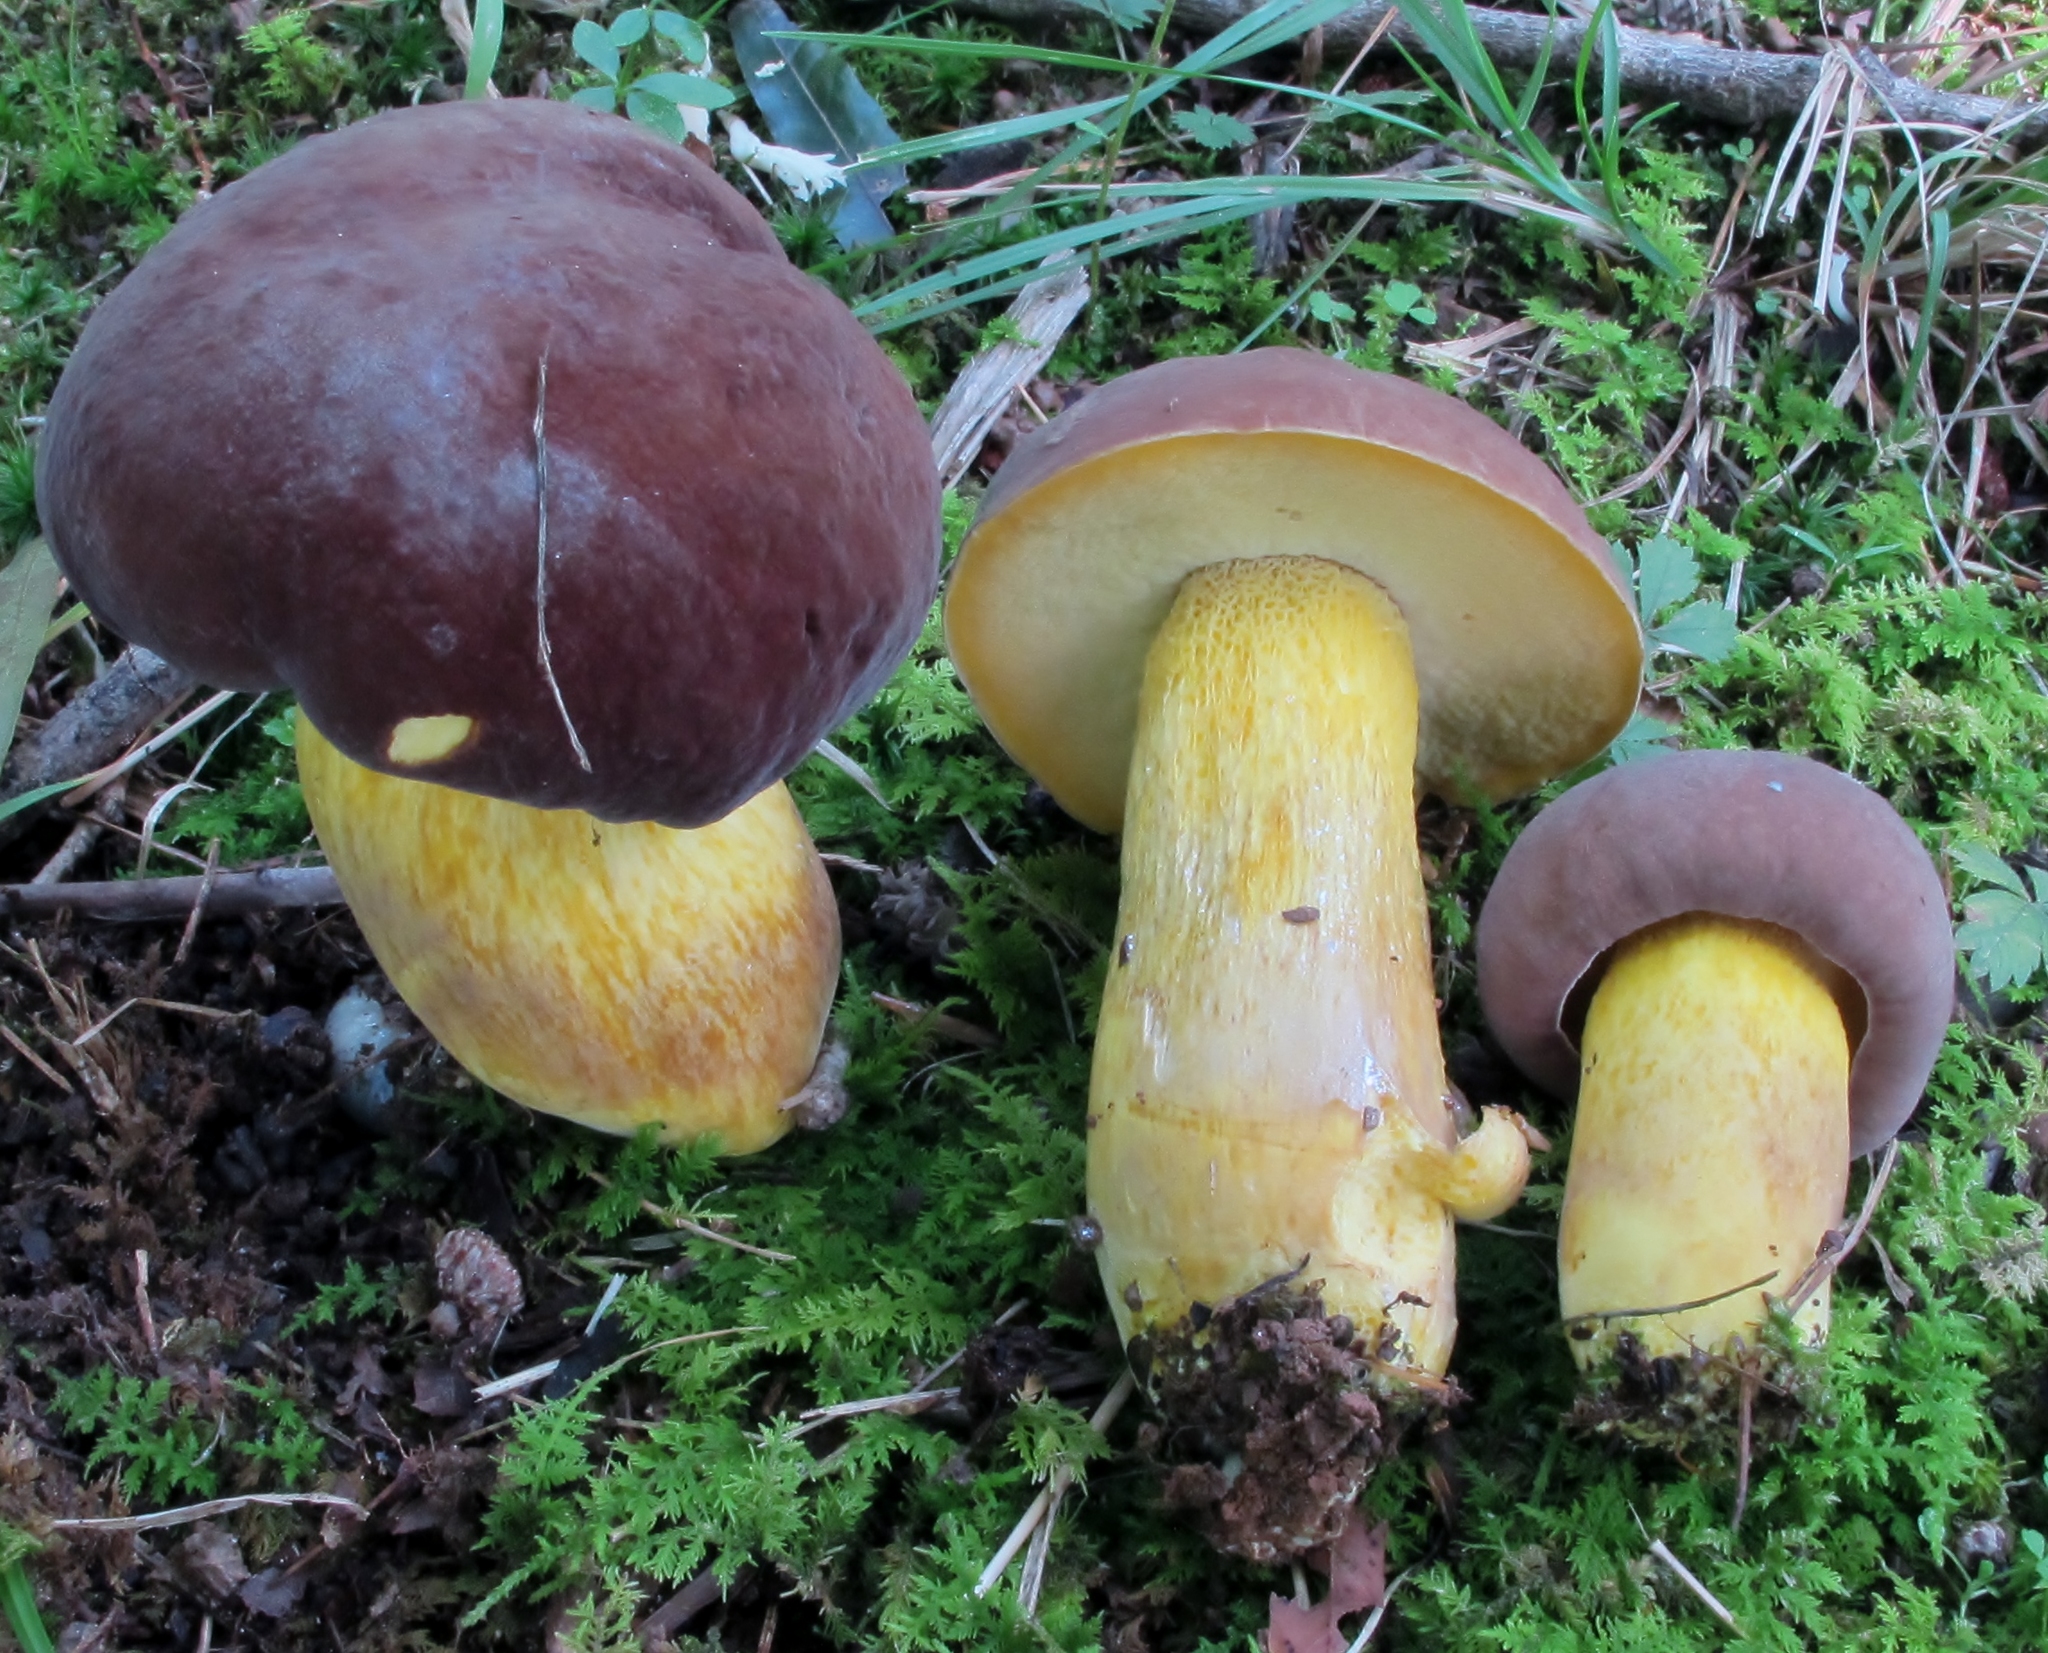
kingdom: Fungi
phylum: Basidiomycota
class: Agaricomycetes
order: Boletales
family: Boletaceae
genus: Boletus
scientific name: Boletus auripes
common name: Butter-foot bolete
